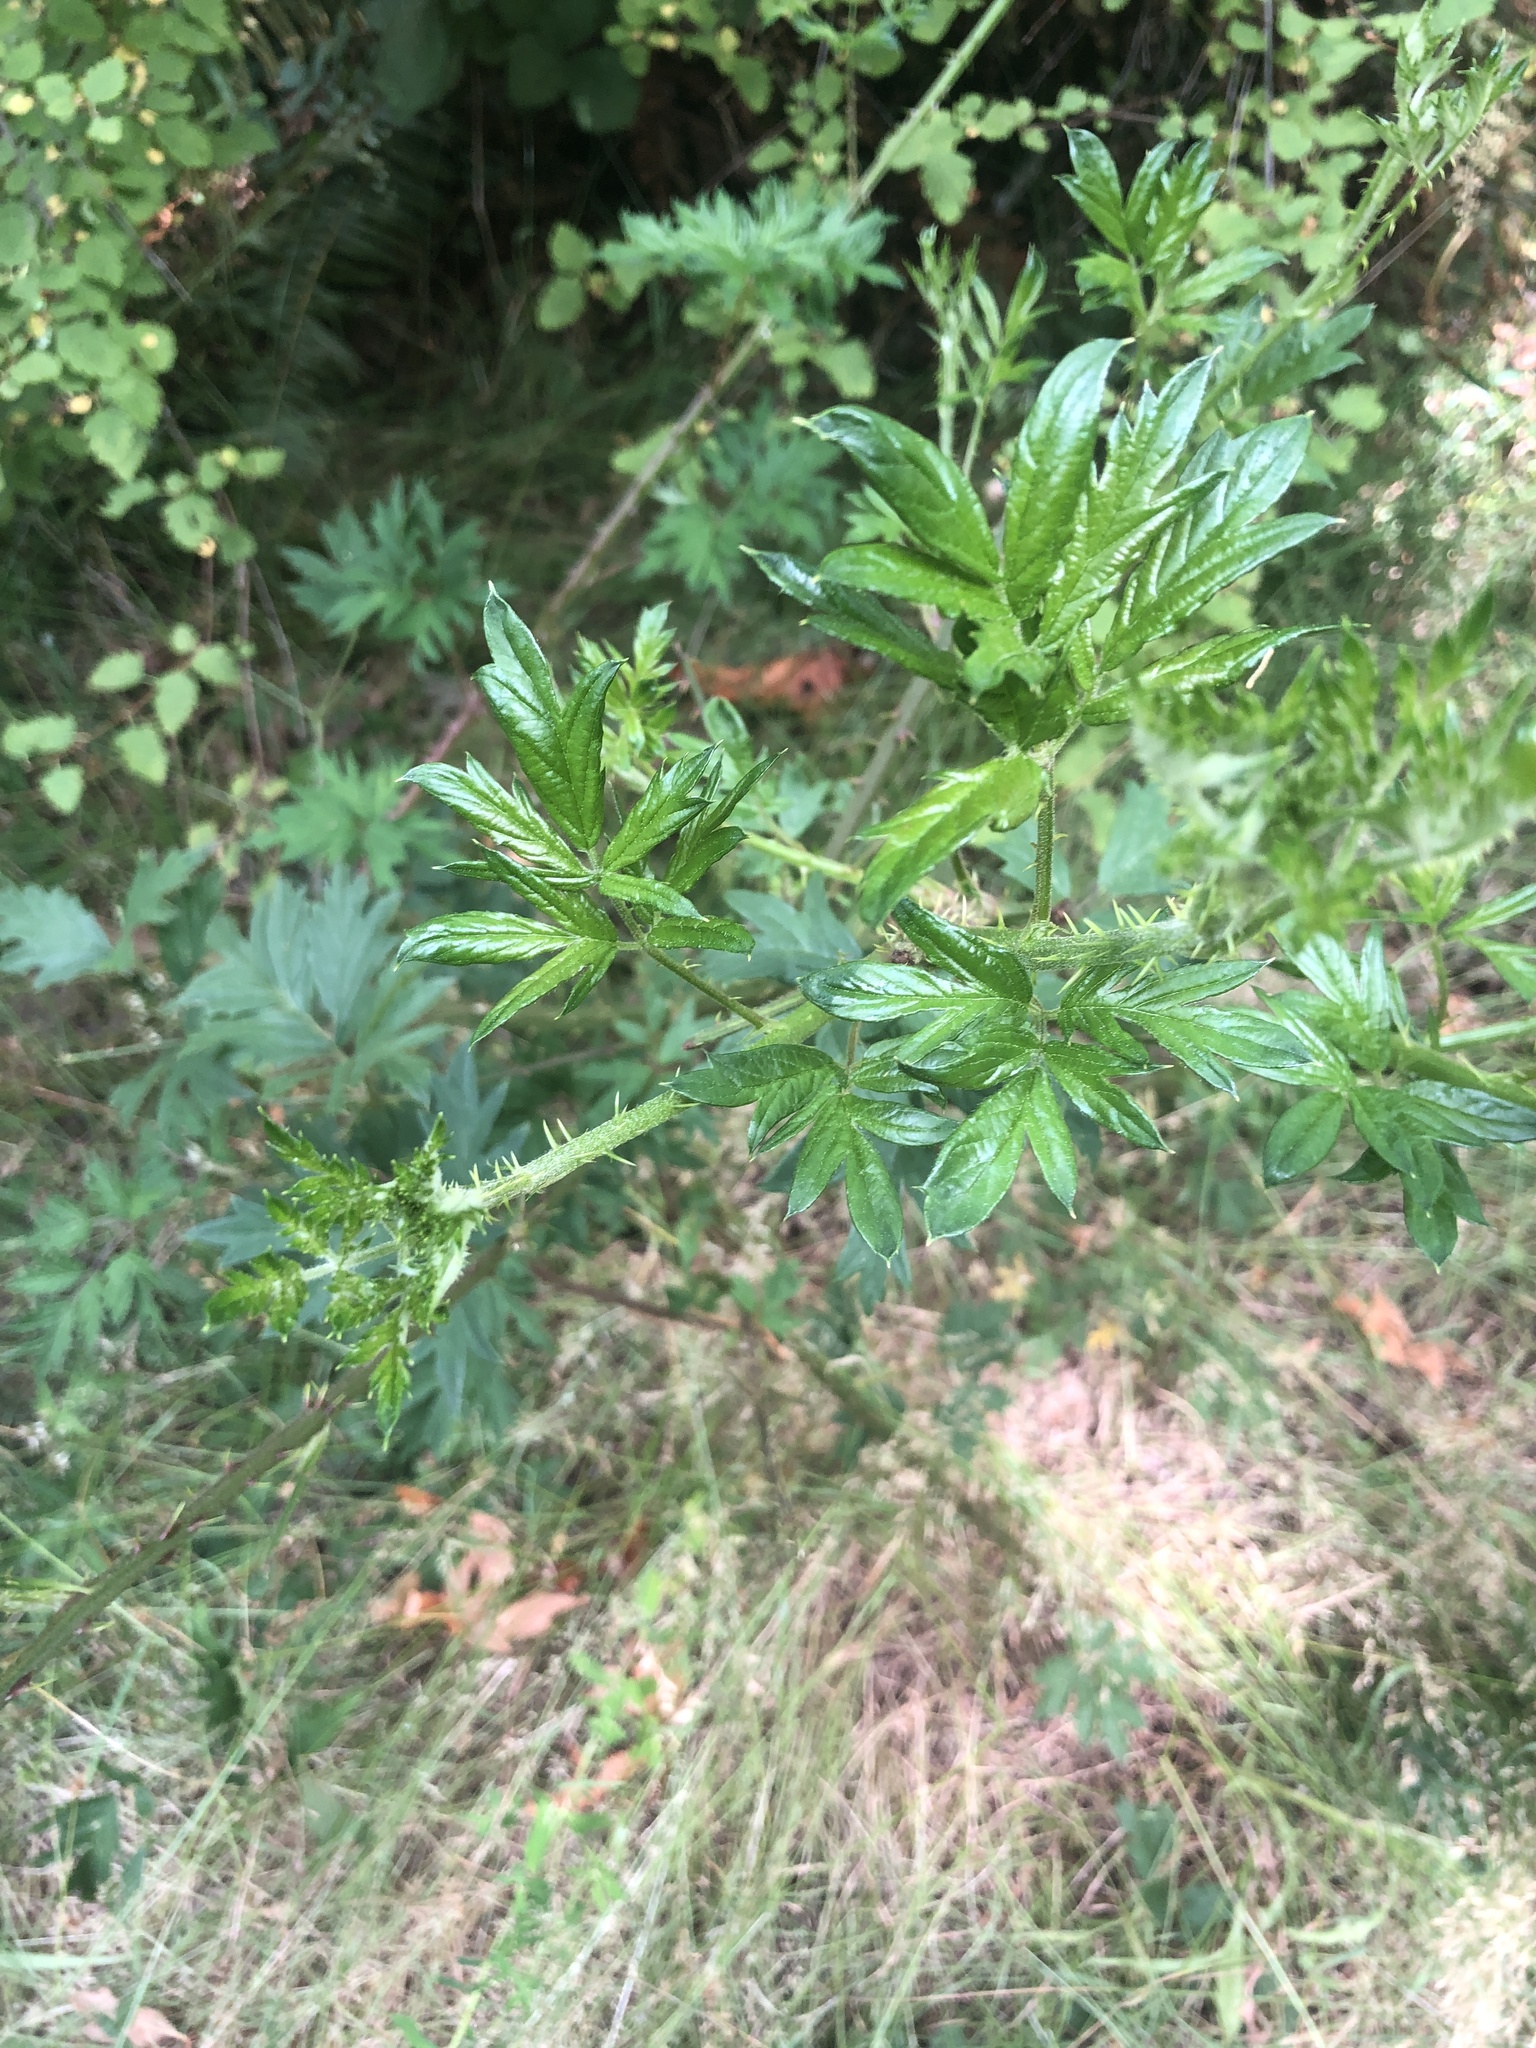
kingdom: Plantae
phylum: Tracheophyta
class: Magnoliopsida
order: Rosales
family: Rosaceae
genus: Rubus
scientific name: Rubus laciniatus
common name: Evergreen blackberry
